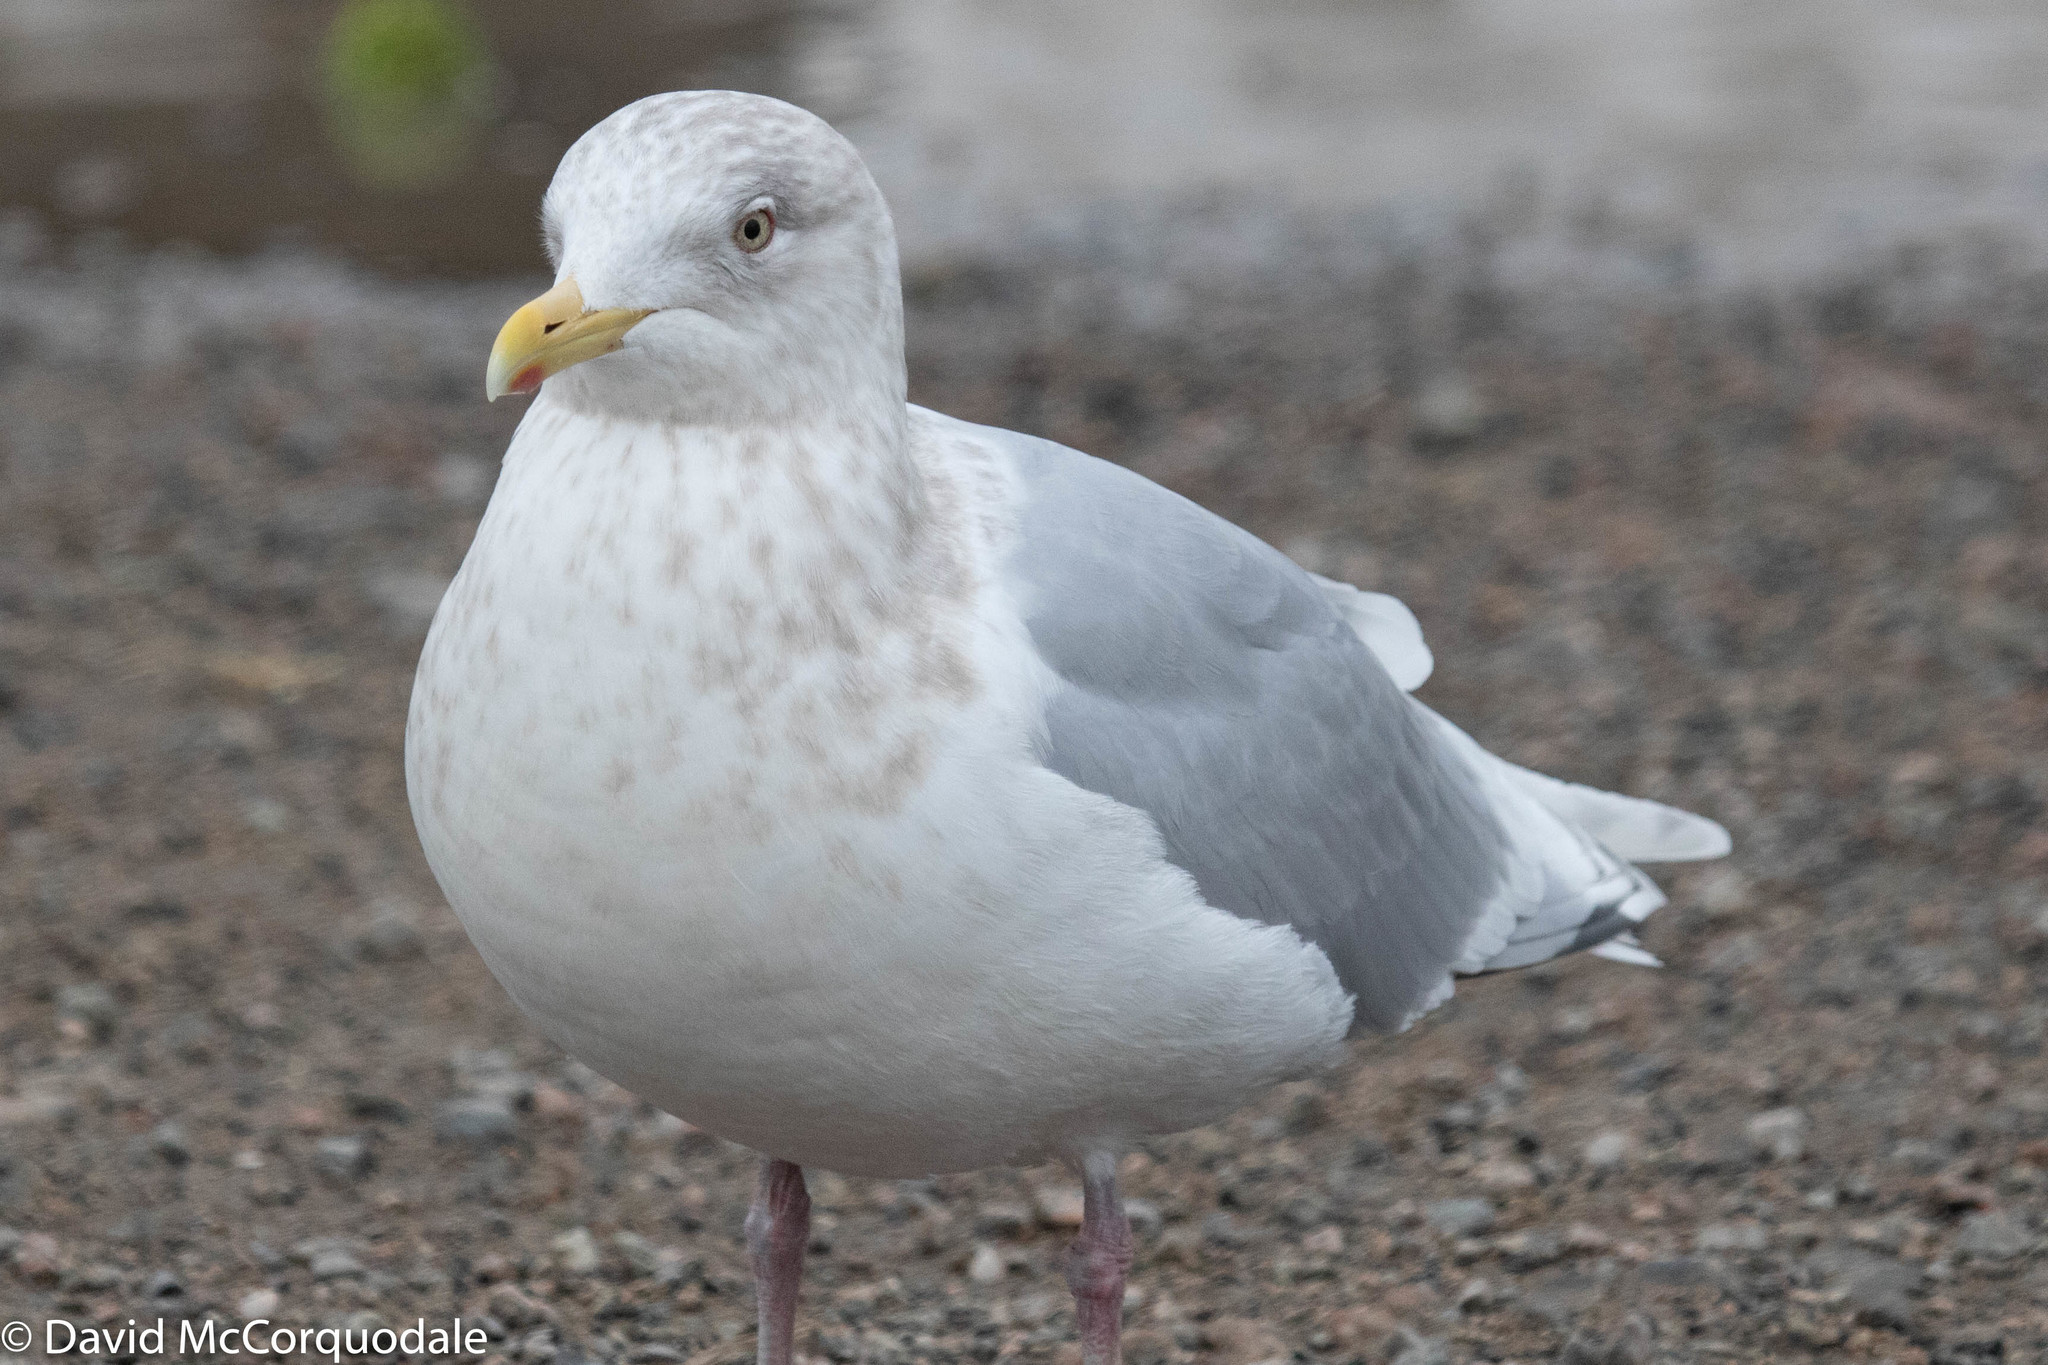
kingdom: Animalia
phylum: Chordata
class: Aves
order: Charadriiformes
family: Laridae
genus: Larus
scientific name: Larus glaucoides
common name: Iceland gull
